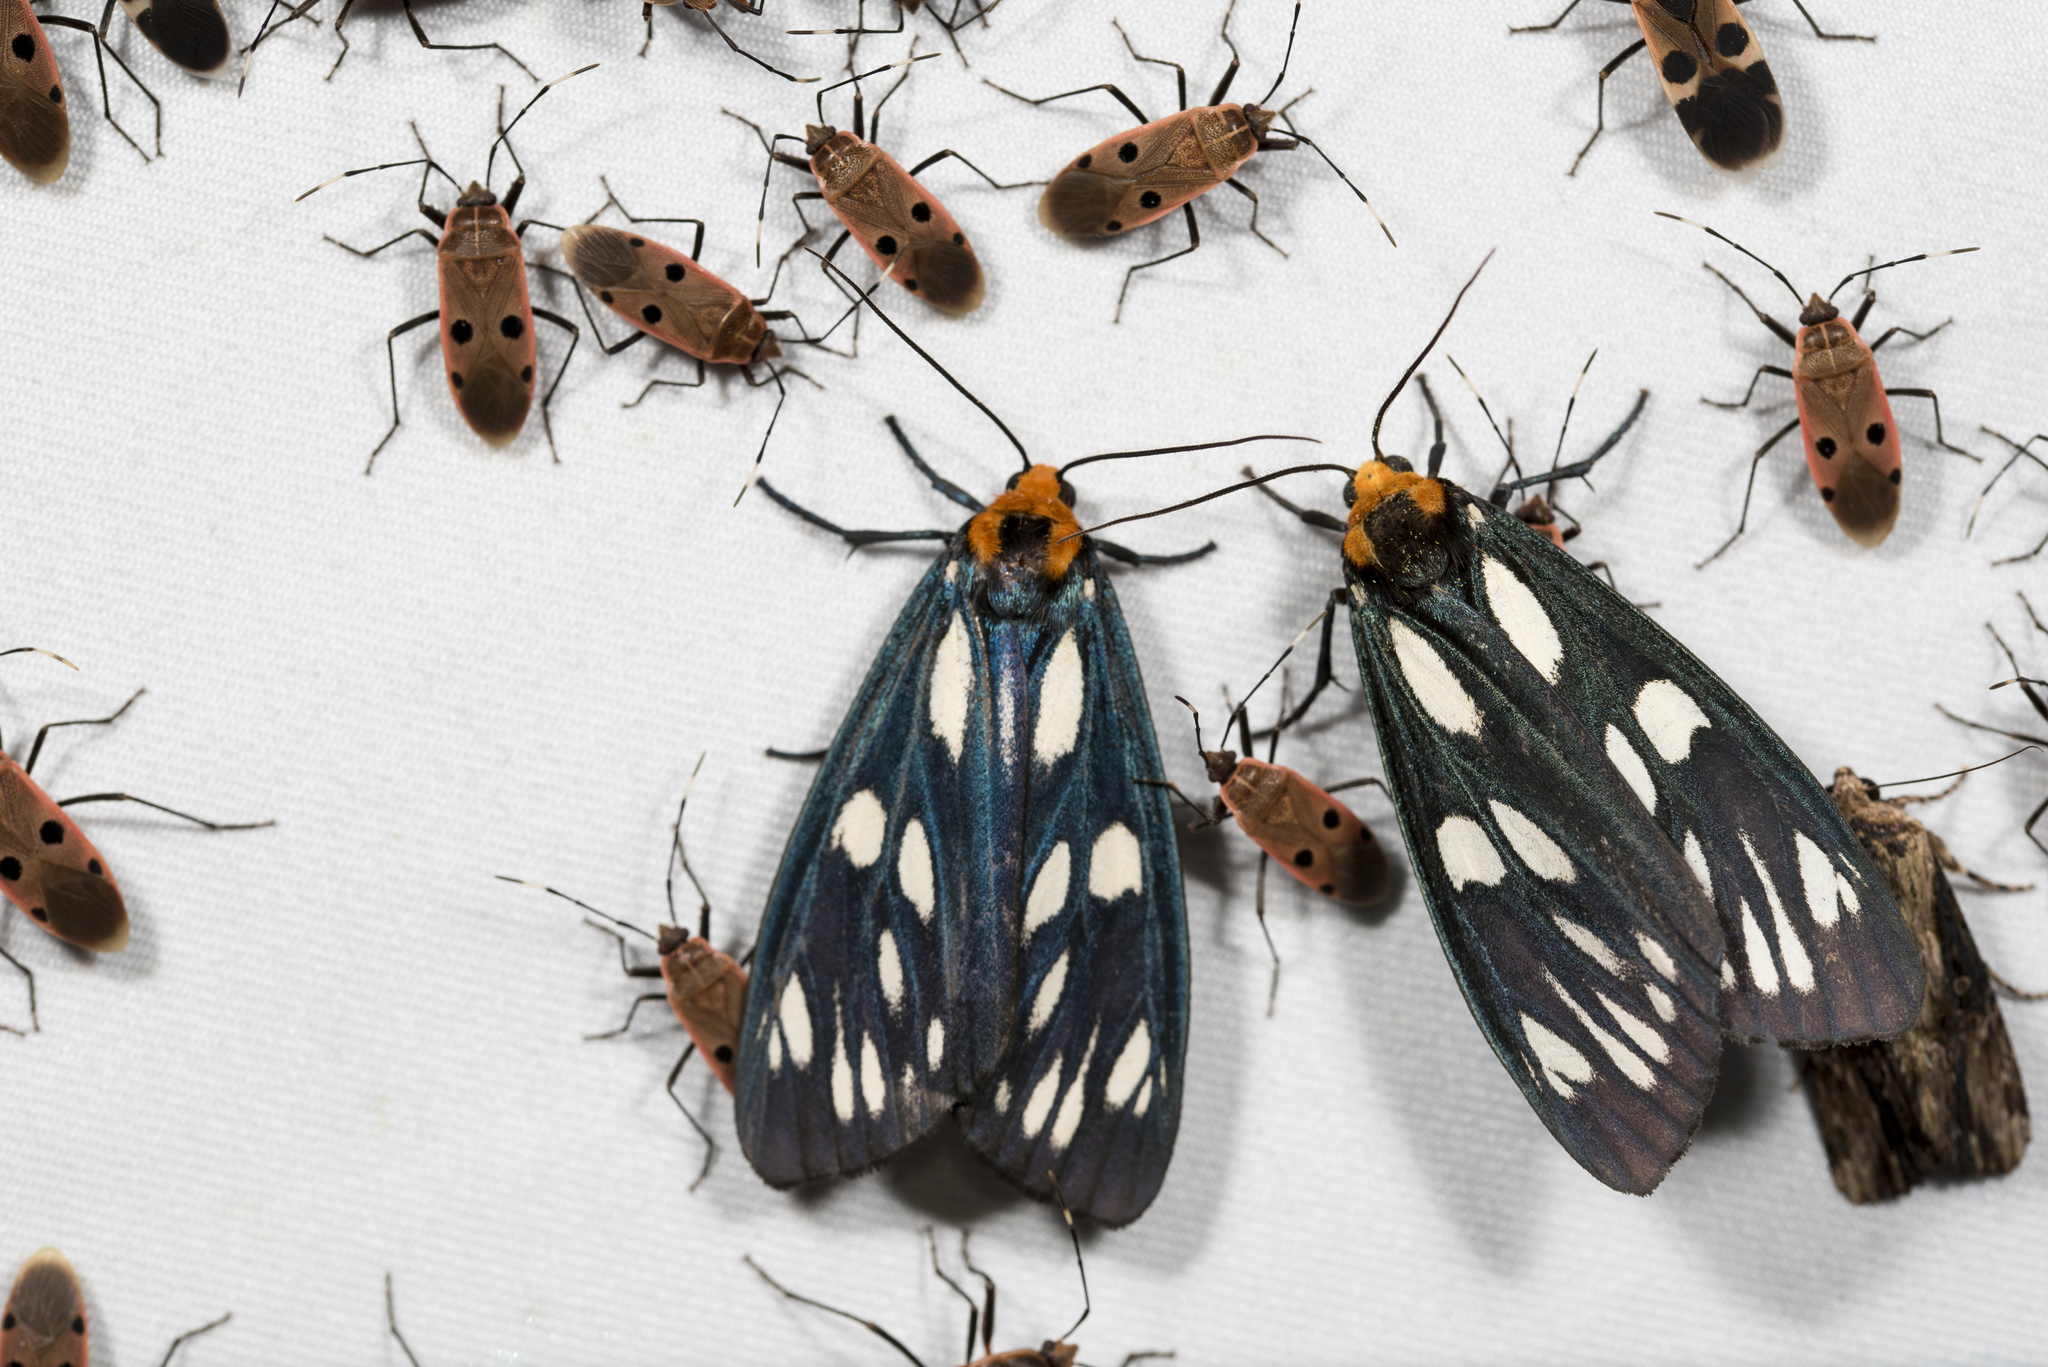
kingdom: Animalia
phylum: Arthropoda
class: Insecta
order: Lepidoptera
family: Erebidae
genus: Macrobrochis
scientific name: Macrobrochis gigas
